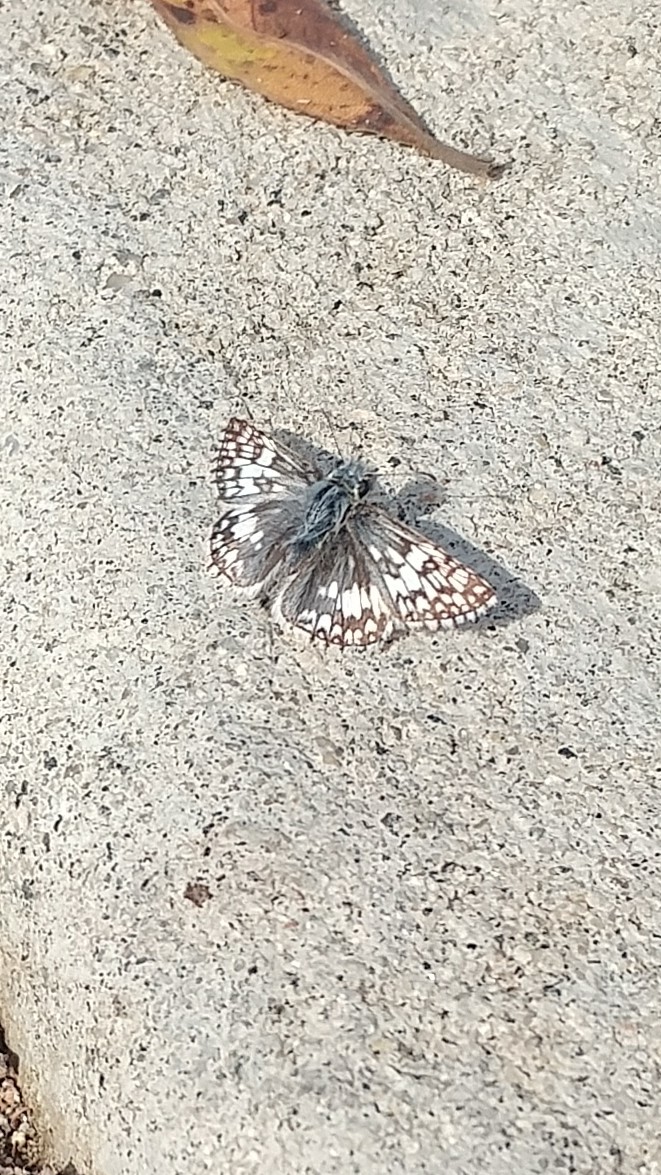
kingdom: Animalia
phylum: Arthropoda
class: Insecta
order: Lepidoptera
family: Hesperiidae
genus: Burnsius
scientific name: Burnsius albezens
